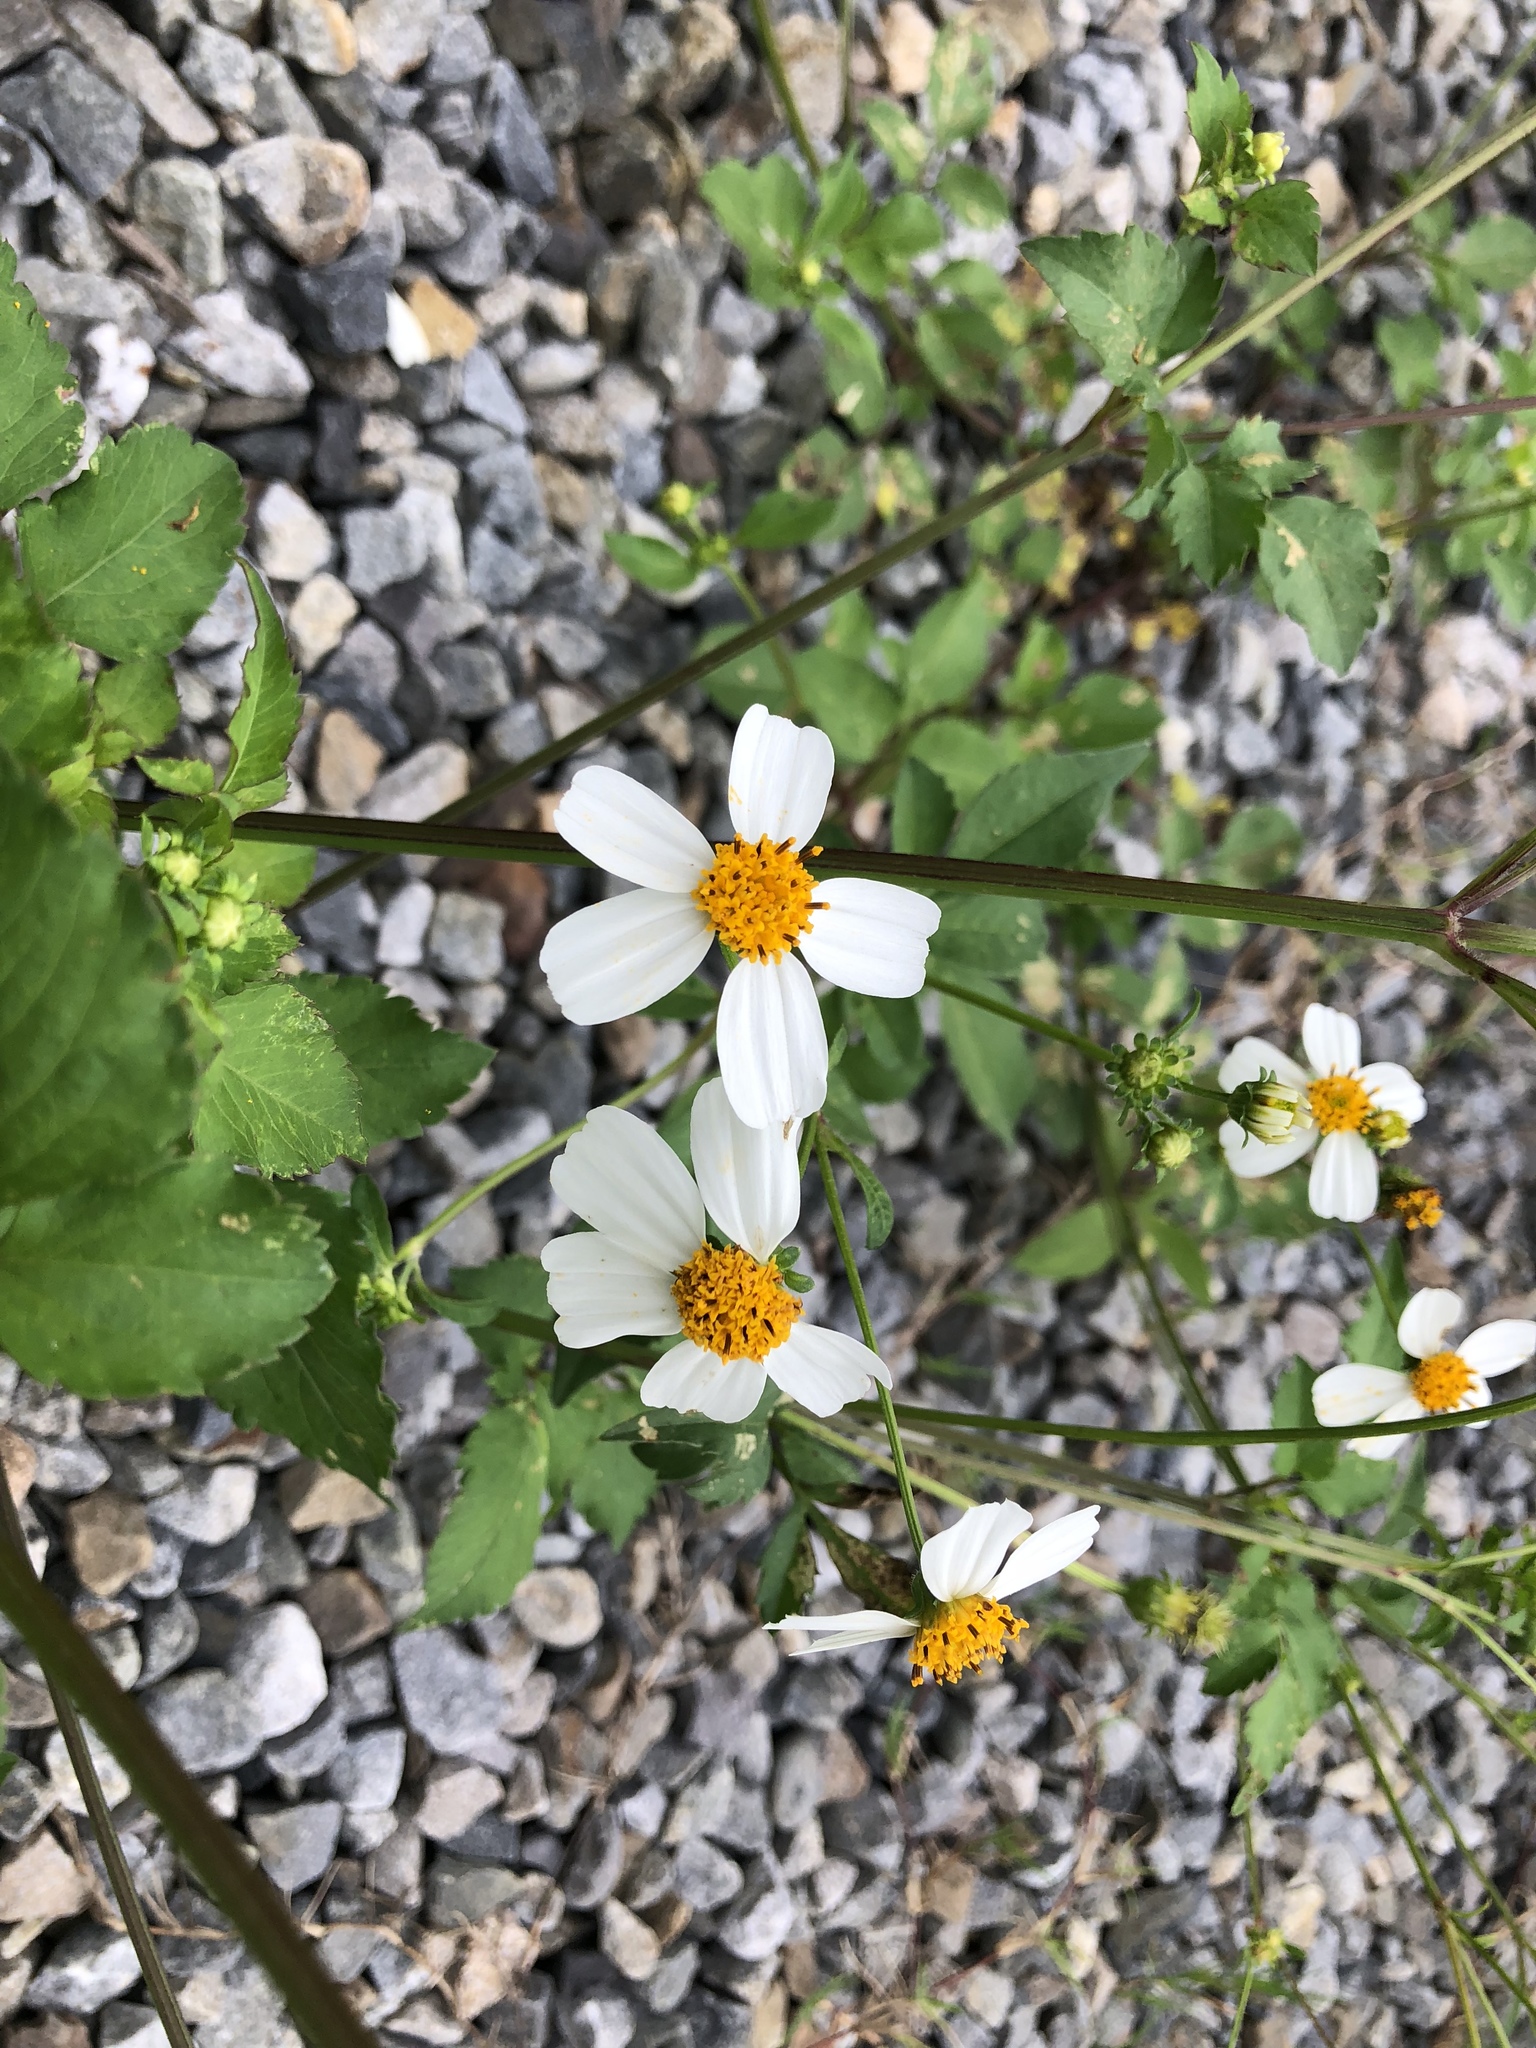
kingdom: Plantae
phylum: Tracheophyta
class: Magnoliopsida
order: Asterales
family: Asteraceae
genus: Bidens
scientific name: Bidens alba
